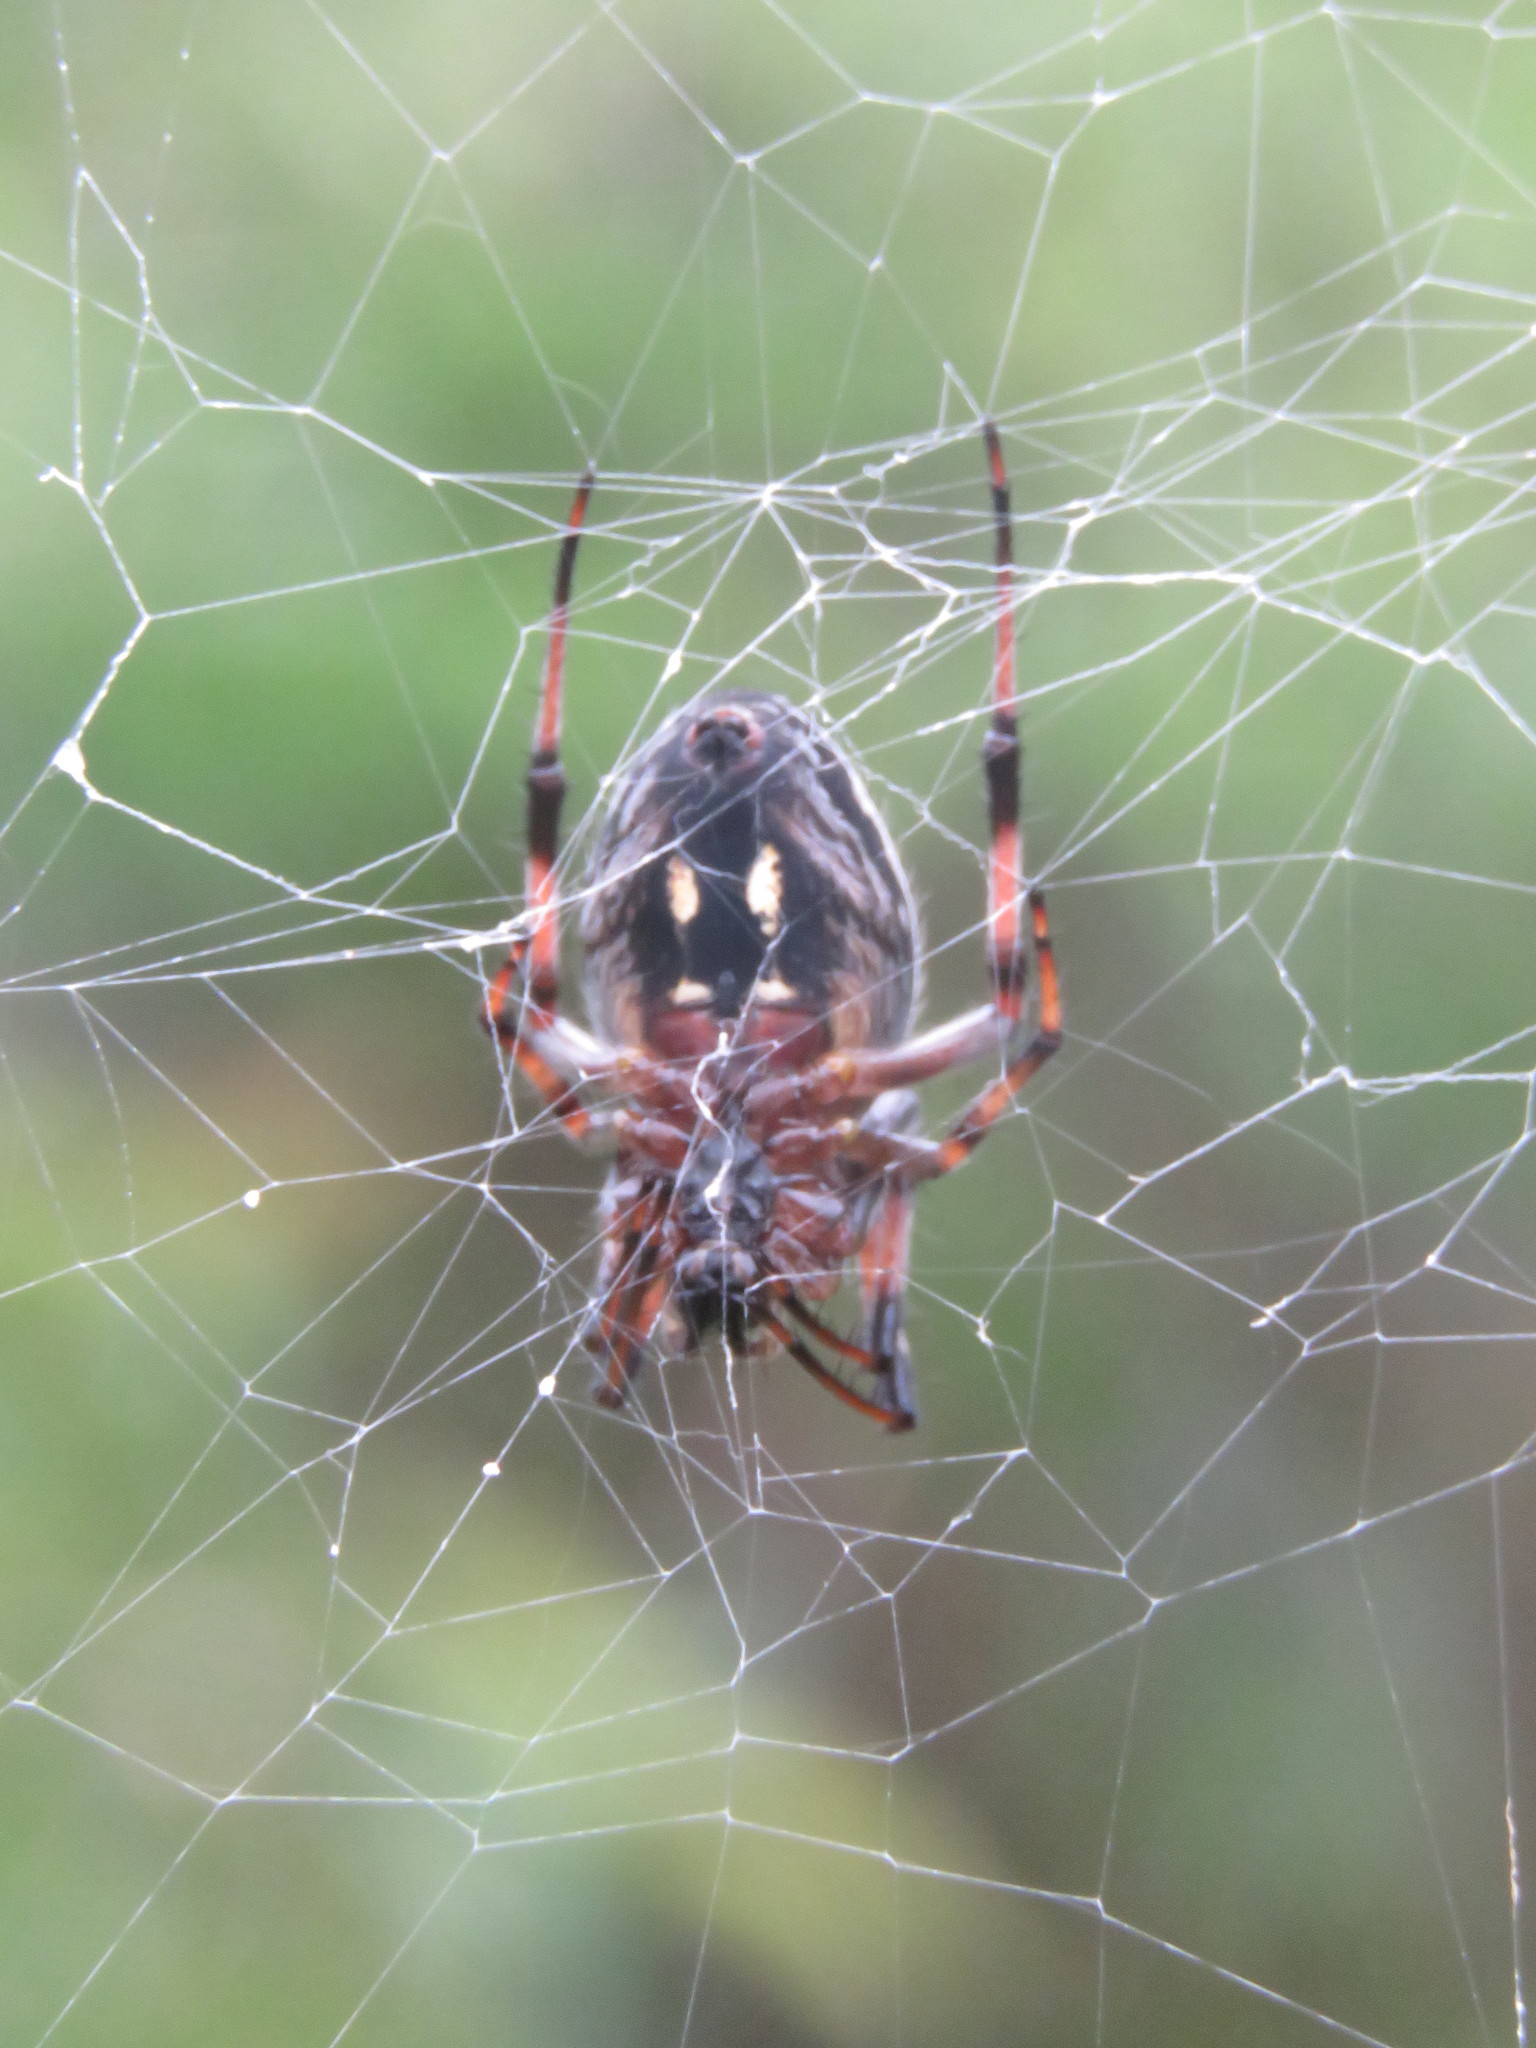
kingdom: Animalia
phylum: Arthropoda
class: Arachnida
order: Araneae
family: Araneidae
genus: Neoscona
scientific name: Neoscona oaxacensis
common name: Orb weavers
